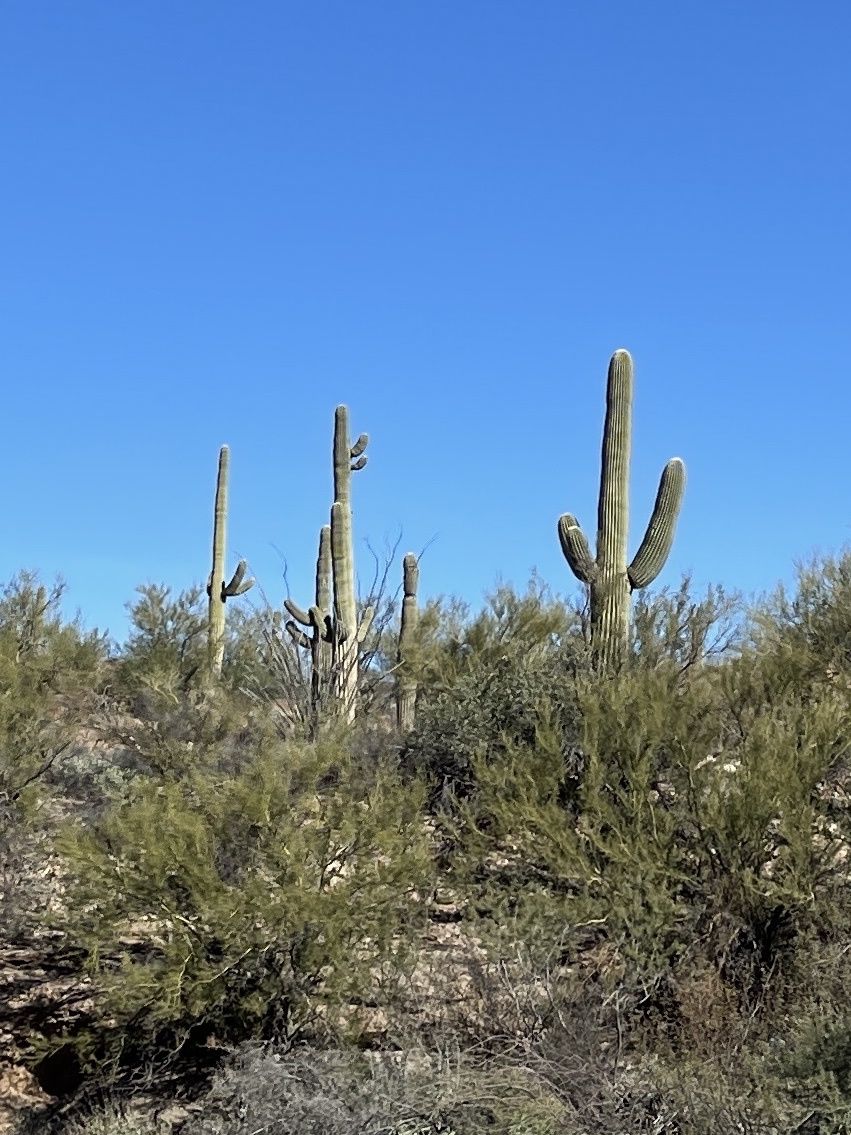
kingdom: Plantae
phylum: Tracheophyta
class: Magnoliopsida
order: Caryophyllales
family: Cactaceae
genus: Carnegiea
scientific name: Carnegiea gigantea
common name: Saguaro
